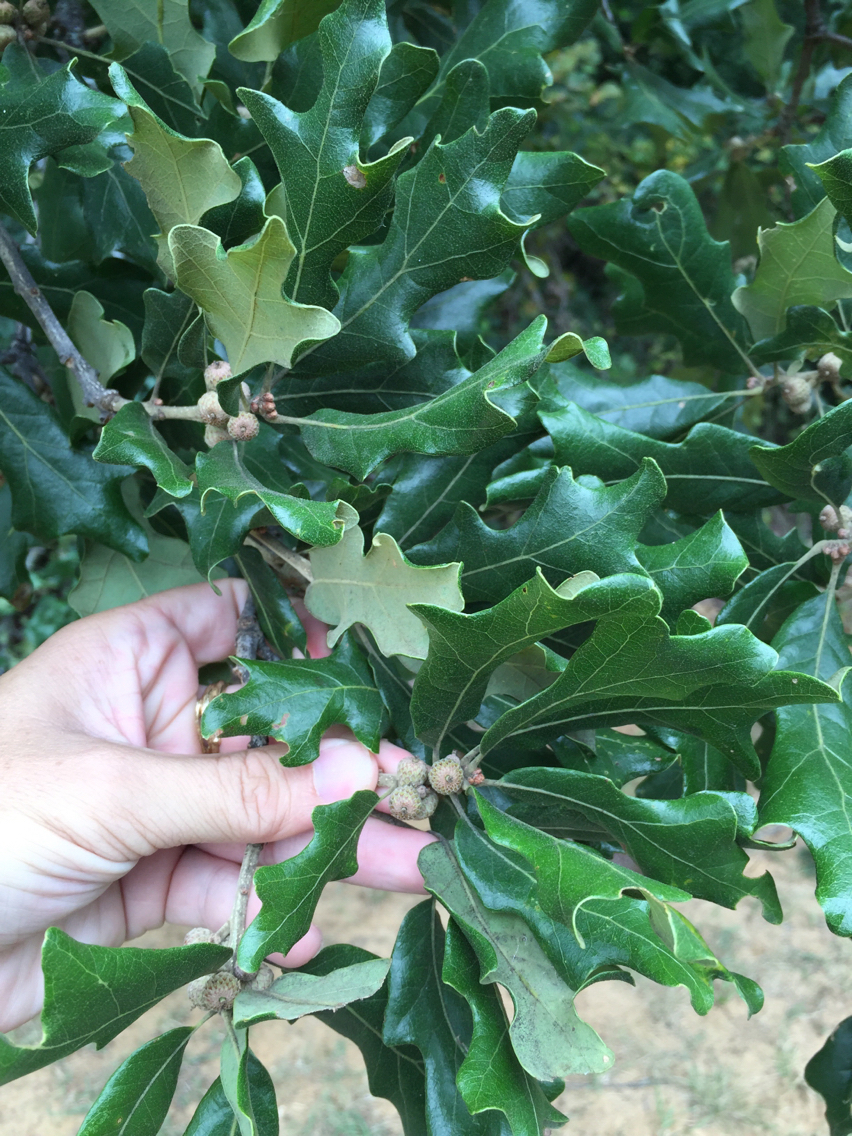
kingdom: Plantae
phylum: Tracheophyta
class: Magnoliopsida
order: Fagales
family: Fagaceae
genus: Quercus
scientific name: Quercus stellata
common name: Post oak
